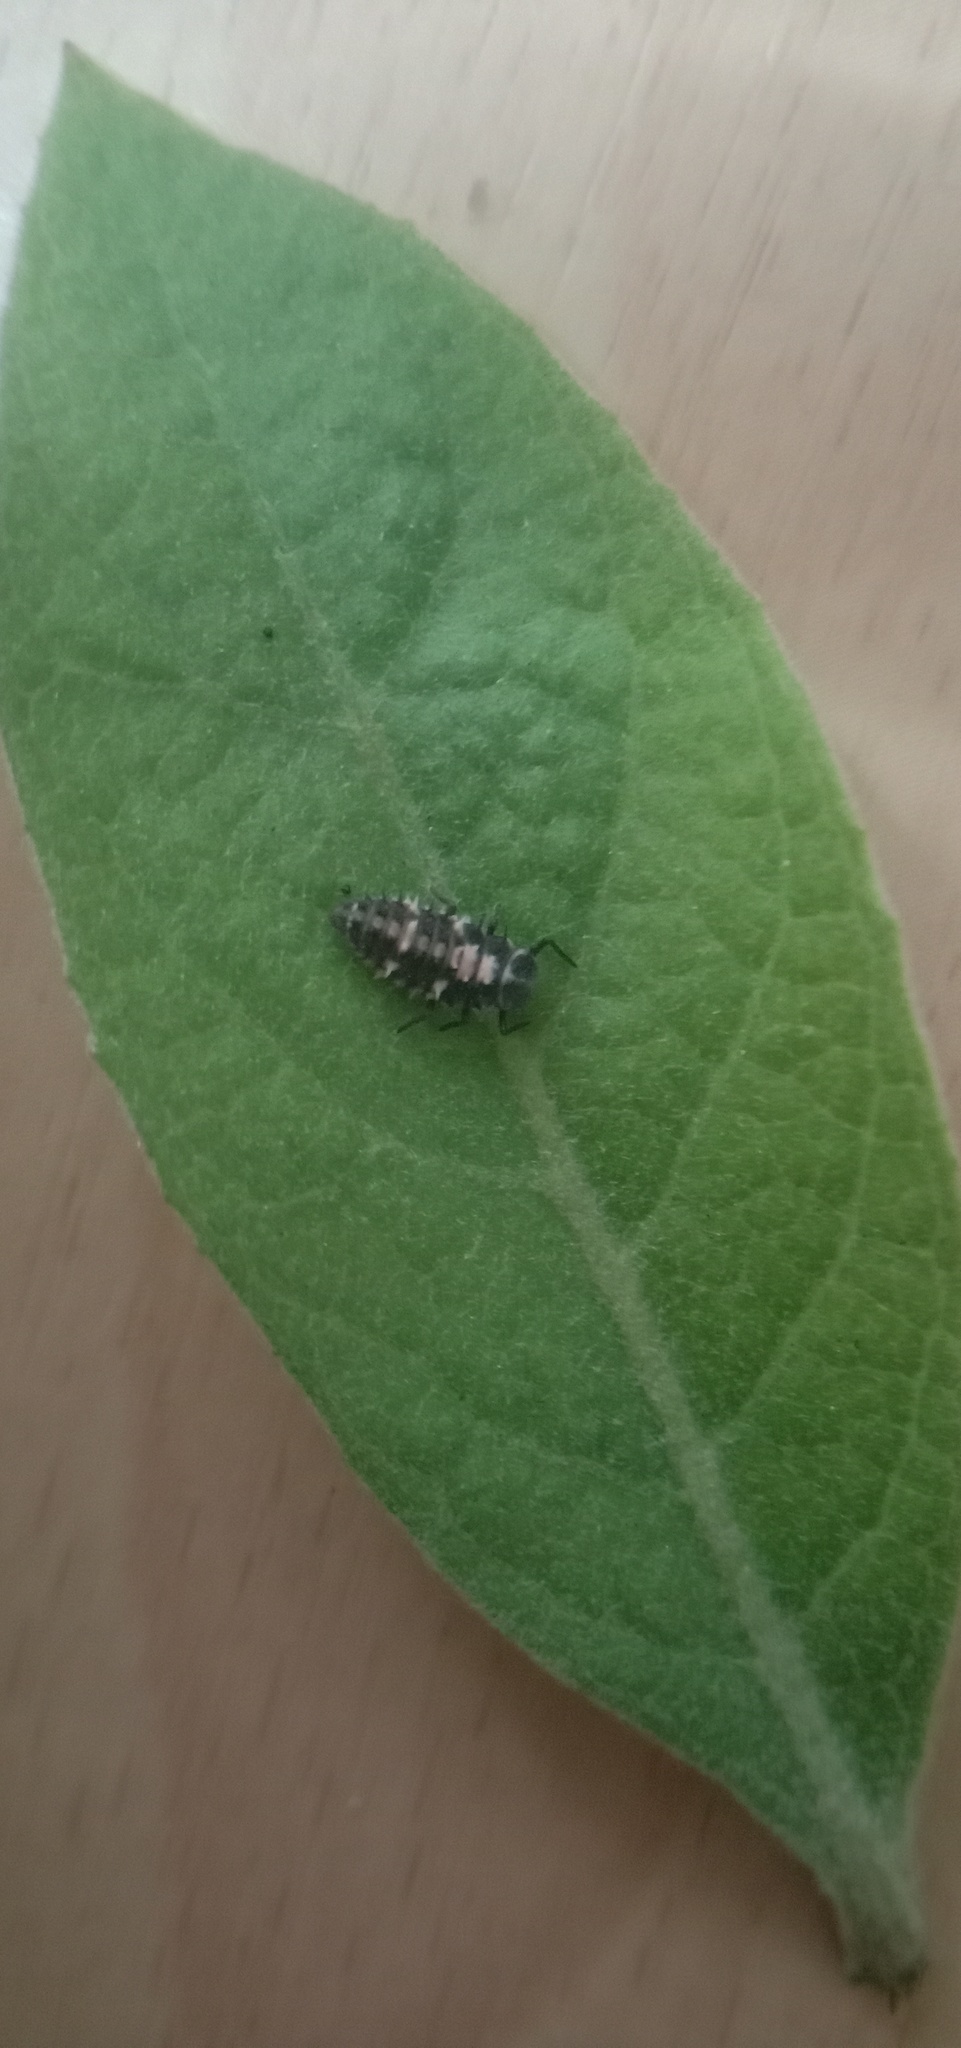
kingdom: Animalia
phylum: Arthropoda
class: Insecta
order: Coleoptera
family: Coccinellidae
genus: Cheilomenes
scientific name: Cheilomenes sexmaculata
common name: Ladybird beetle
